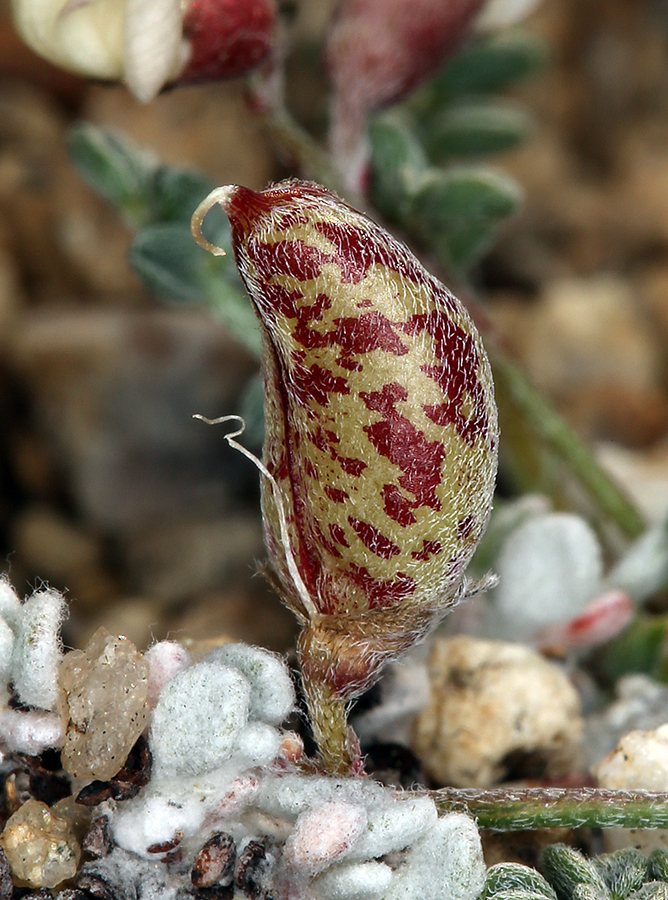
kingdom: Plantae
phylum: Tracheophyta
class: Magnoliopsida
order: Fabales
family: Fabaceae
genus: Astragalus
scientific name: Astragalus ravenii
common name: Raven's milk-vetch
